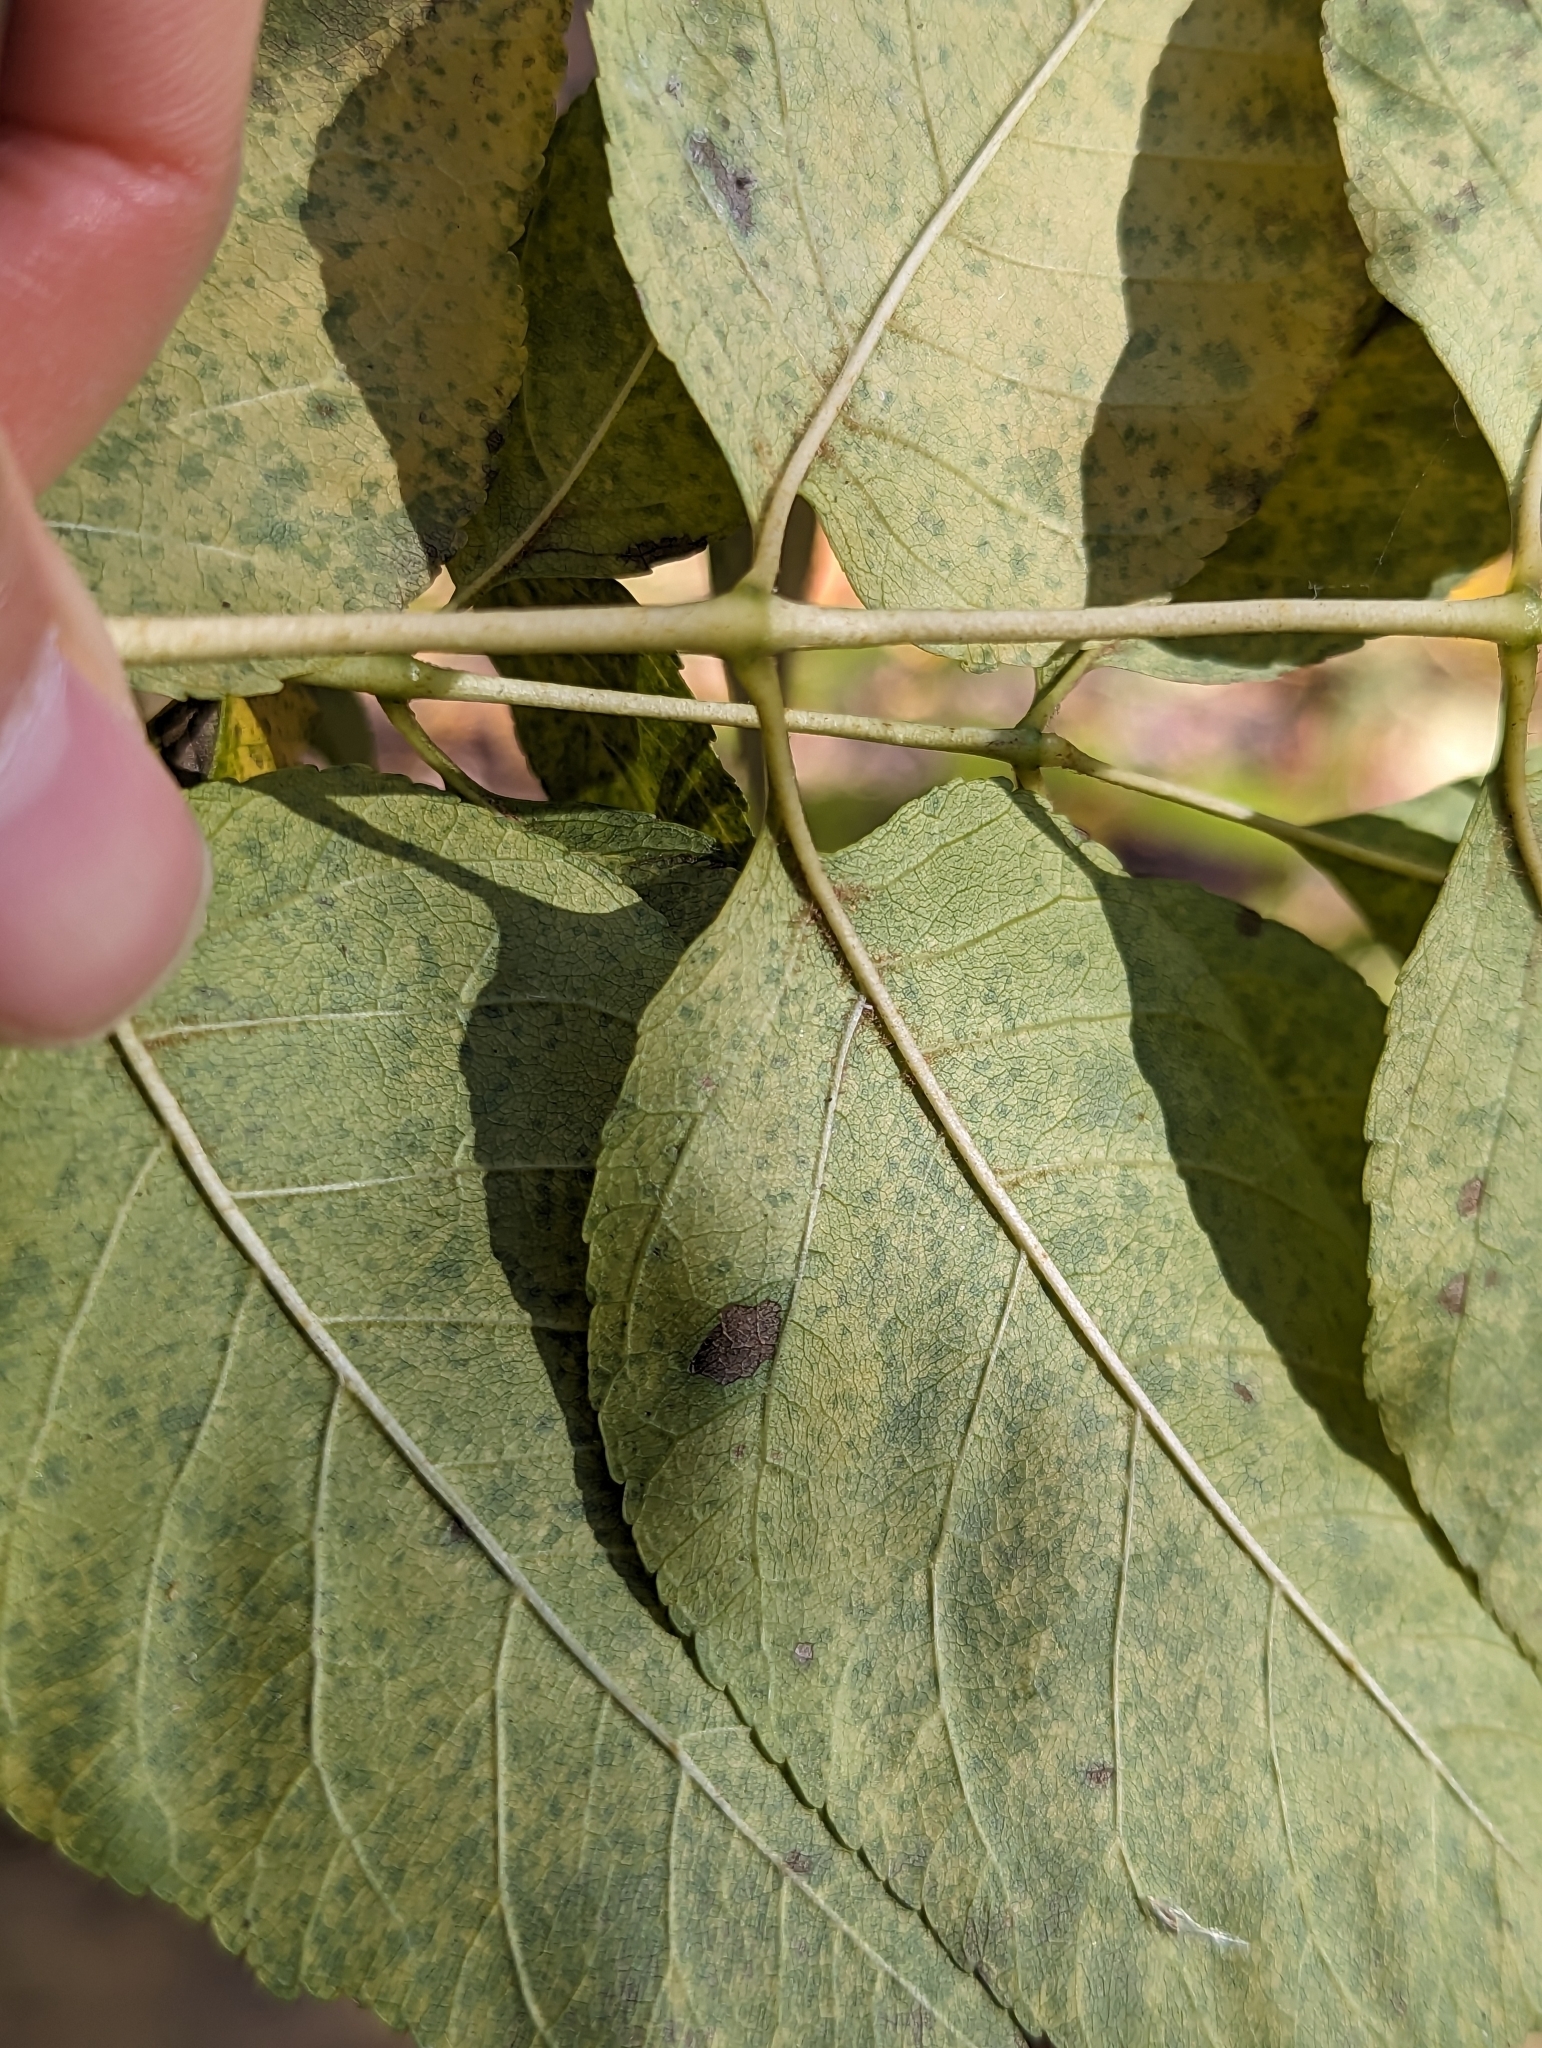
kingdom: Plantae
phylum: Tracheophyta
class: Magnoliopsida
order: Lamiales
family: Oleaceae
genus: Fraxinus
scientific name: Fraxinus ornus
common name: Manna ash
